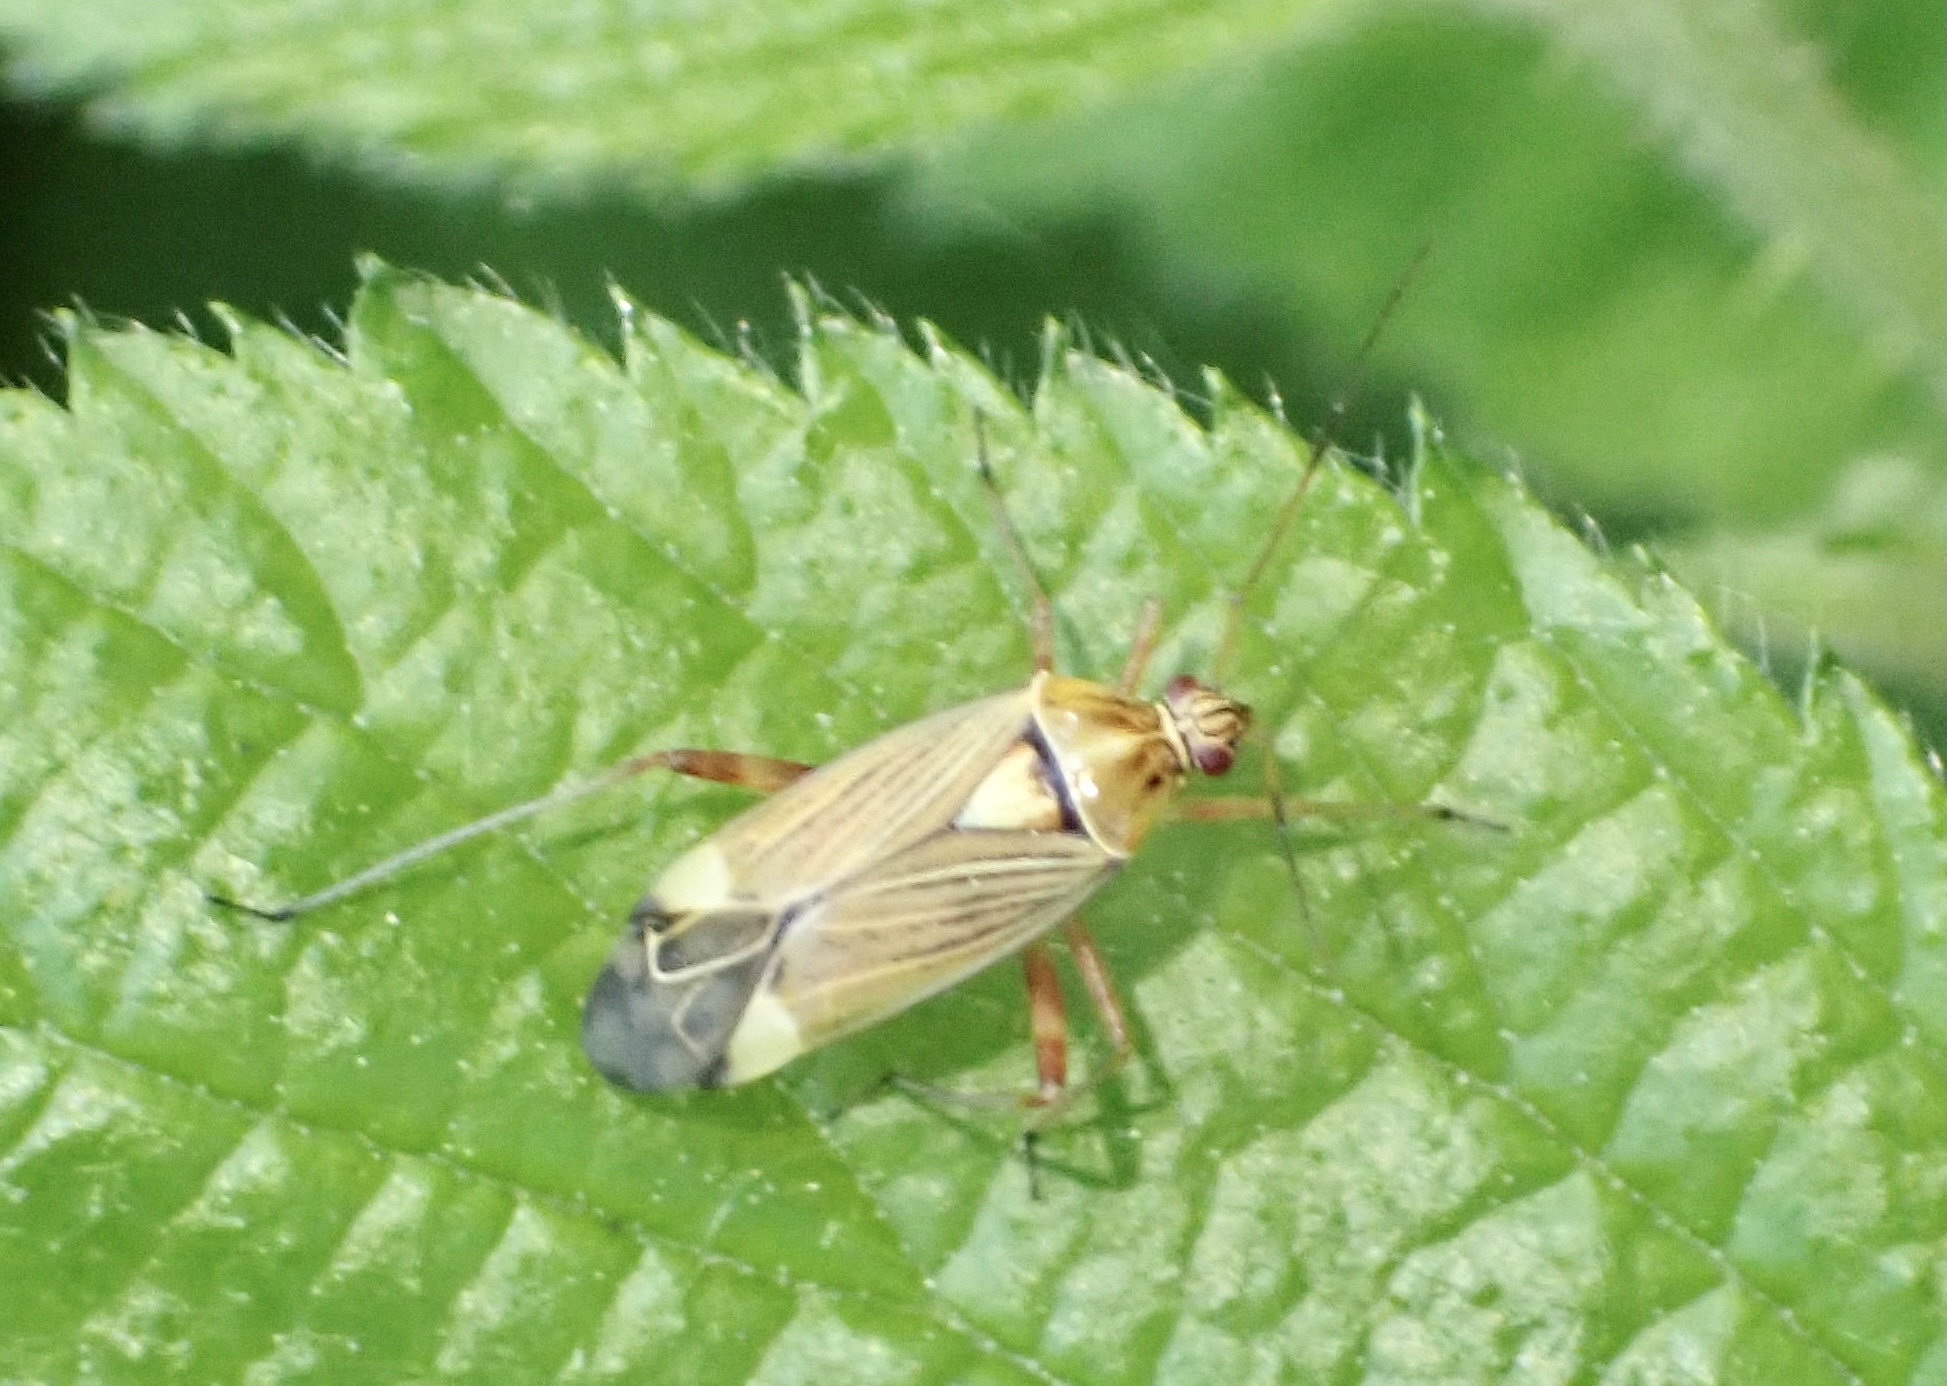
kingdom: Animalia
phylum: Arthropoda
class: Insecta
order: Hemiptera
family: Miridae
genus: Rhabdomiris
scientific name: Rhabdomiris striatellus
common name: Plant bug
